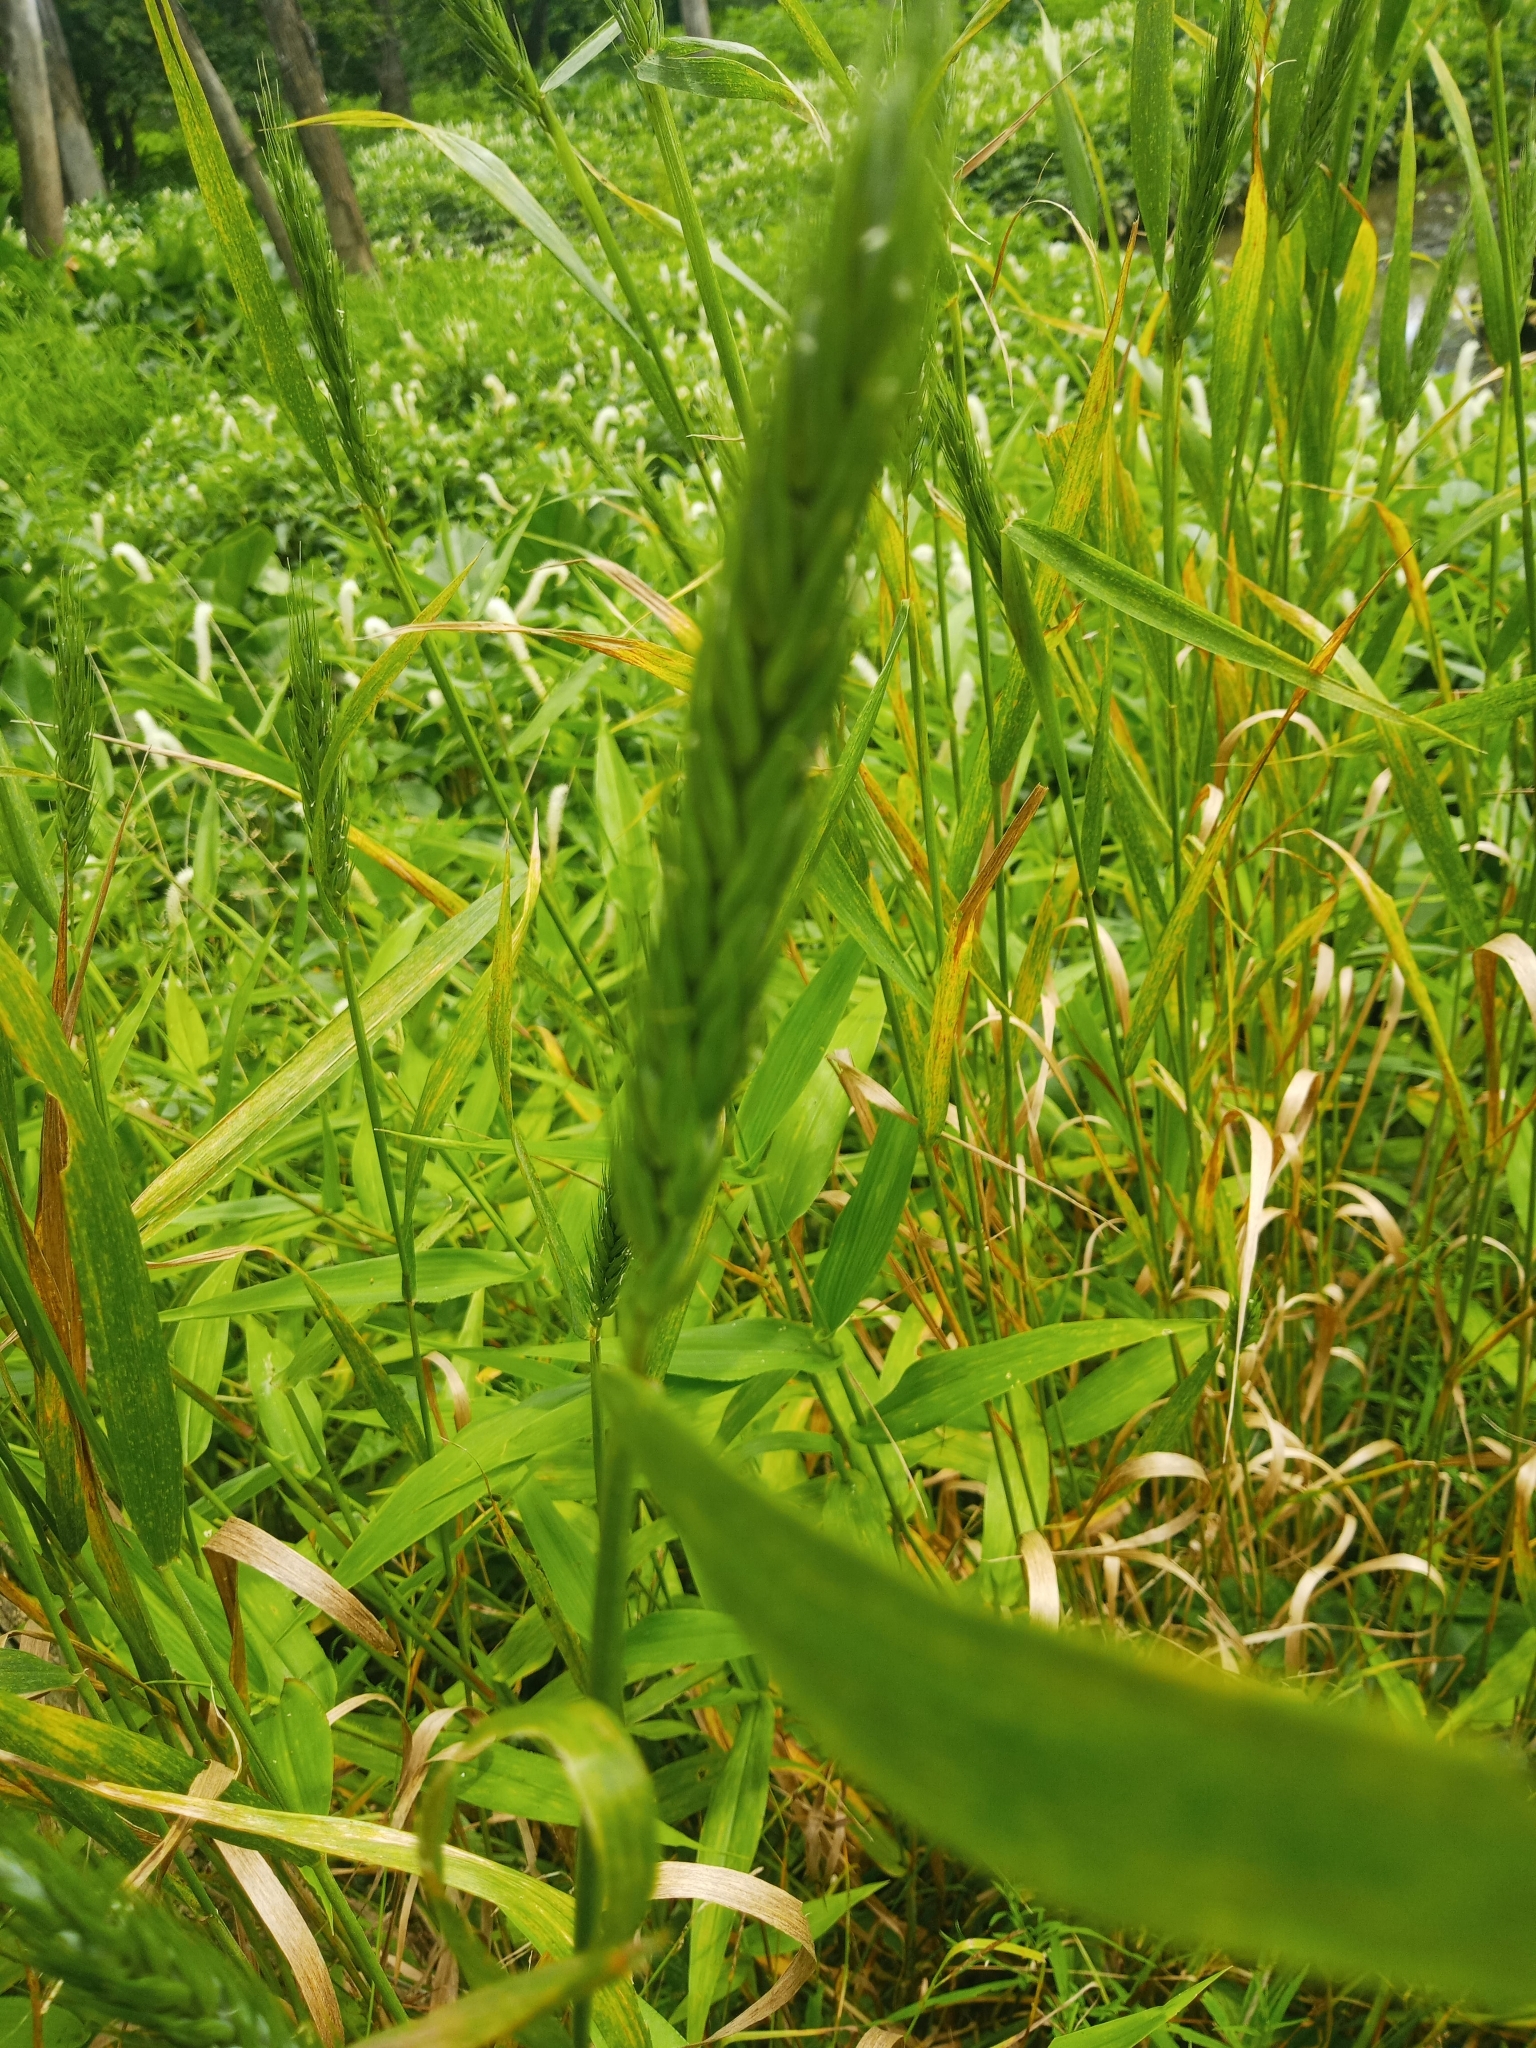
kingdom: Plantae
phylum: Tracheophyta
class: Liliopsida
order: Poales
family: Poaceae
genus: Elymus
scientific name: Elymus virginicus
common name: Common eastern wildrye
